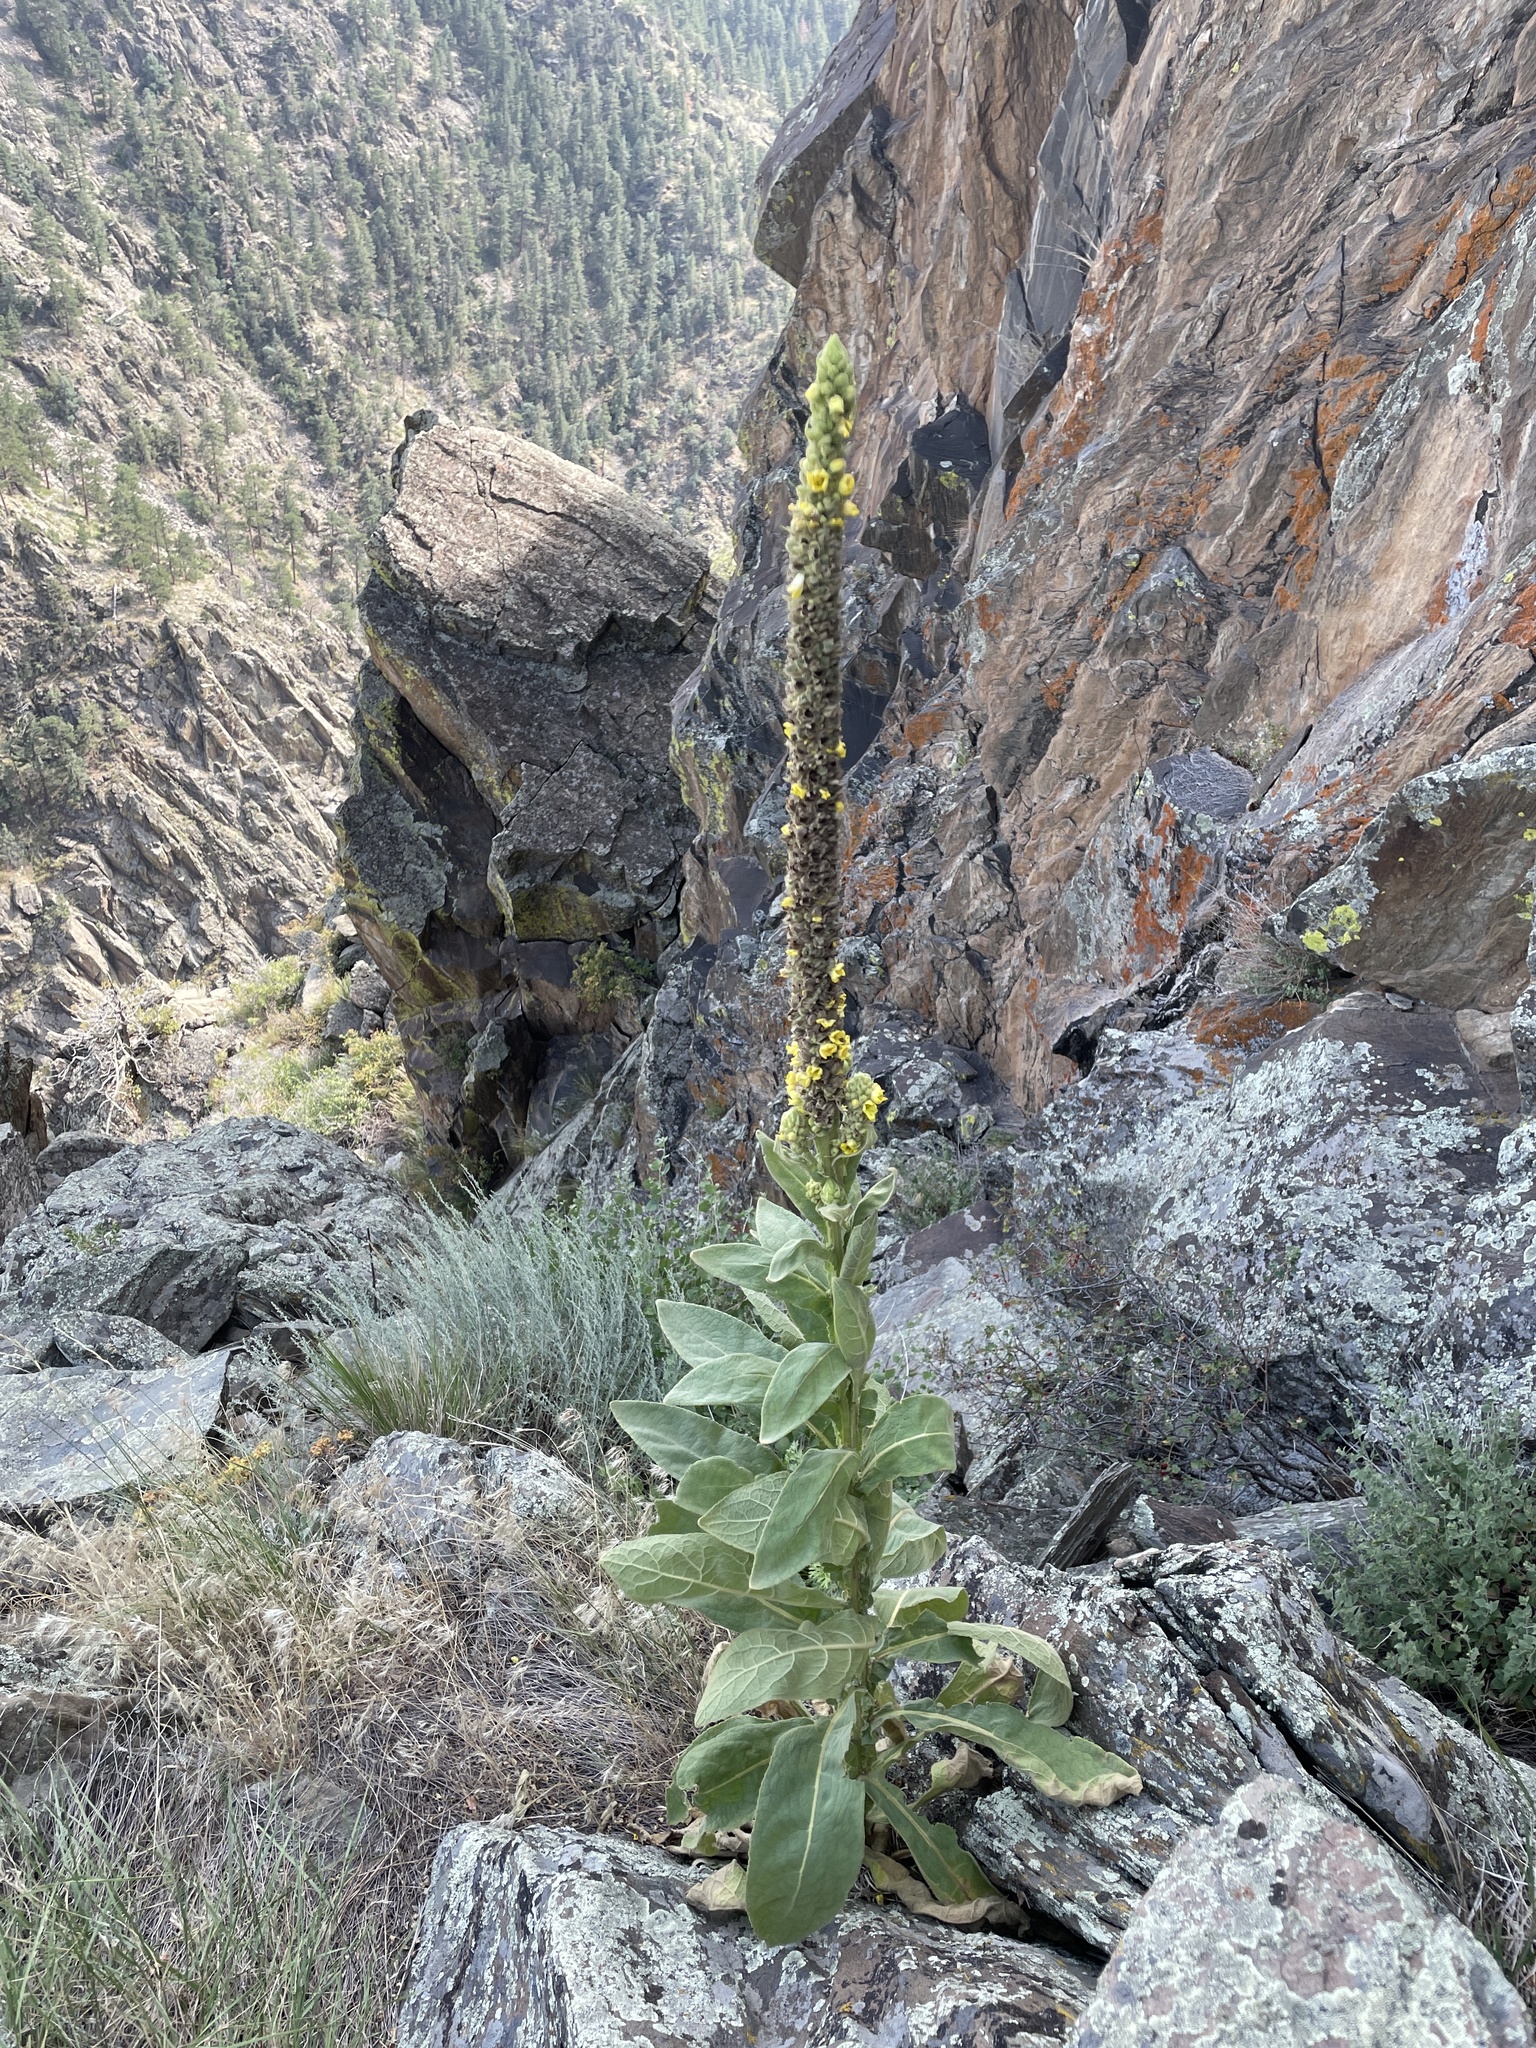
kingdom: Plantae
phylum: Tracheophyta
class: Magnoliopsida
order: Lamiales
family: Scrophulariaceae
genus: Verbascum
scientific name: Verbascum thapsus
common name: Common mullein
